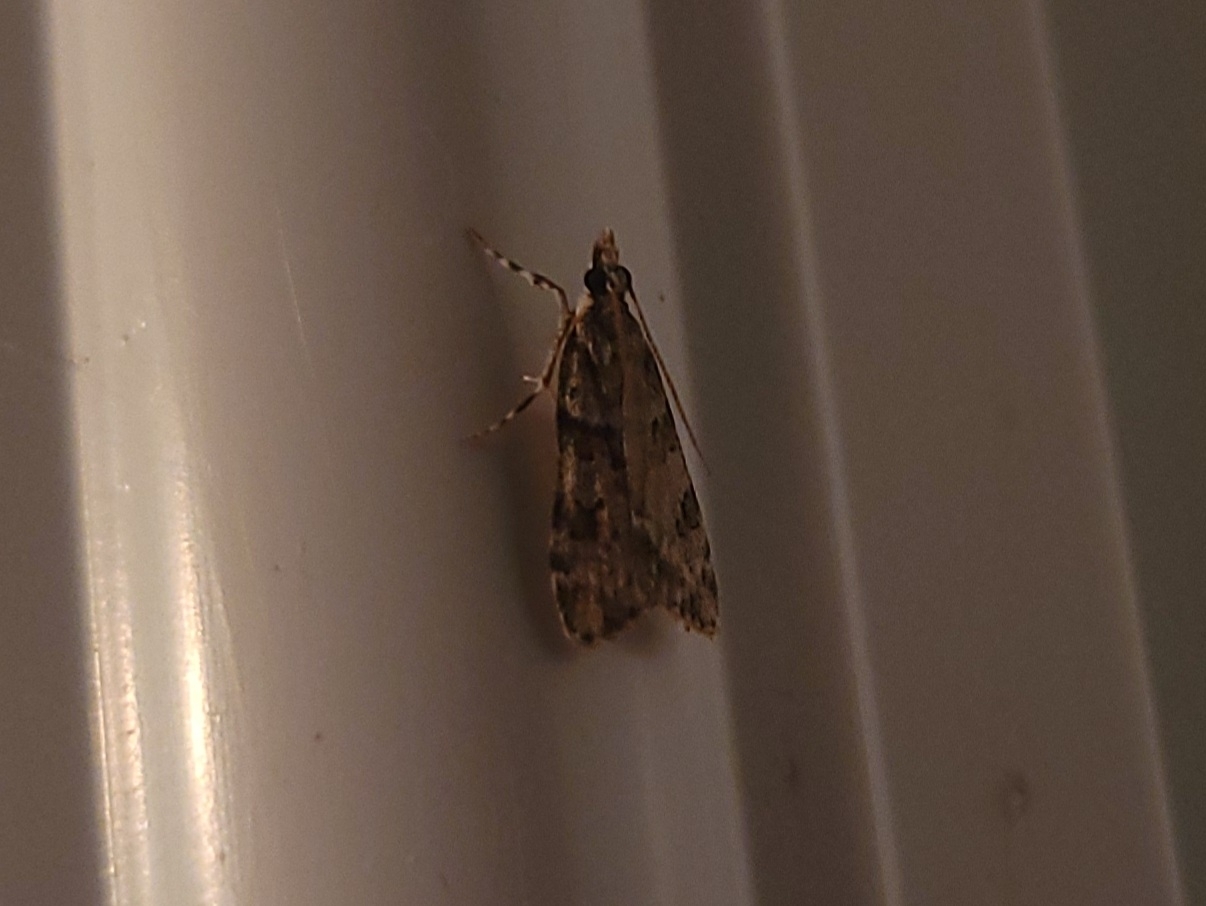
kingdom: Animalia
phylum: Arthropoda
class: Insecta
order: Lepidoptera
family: Crambidae
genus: Scoparia
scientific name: Scoparia biplagialis
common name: Double-striped scoparia moth
